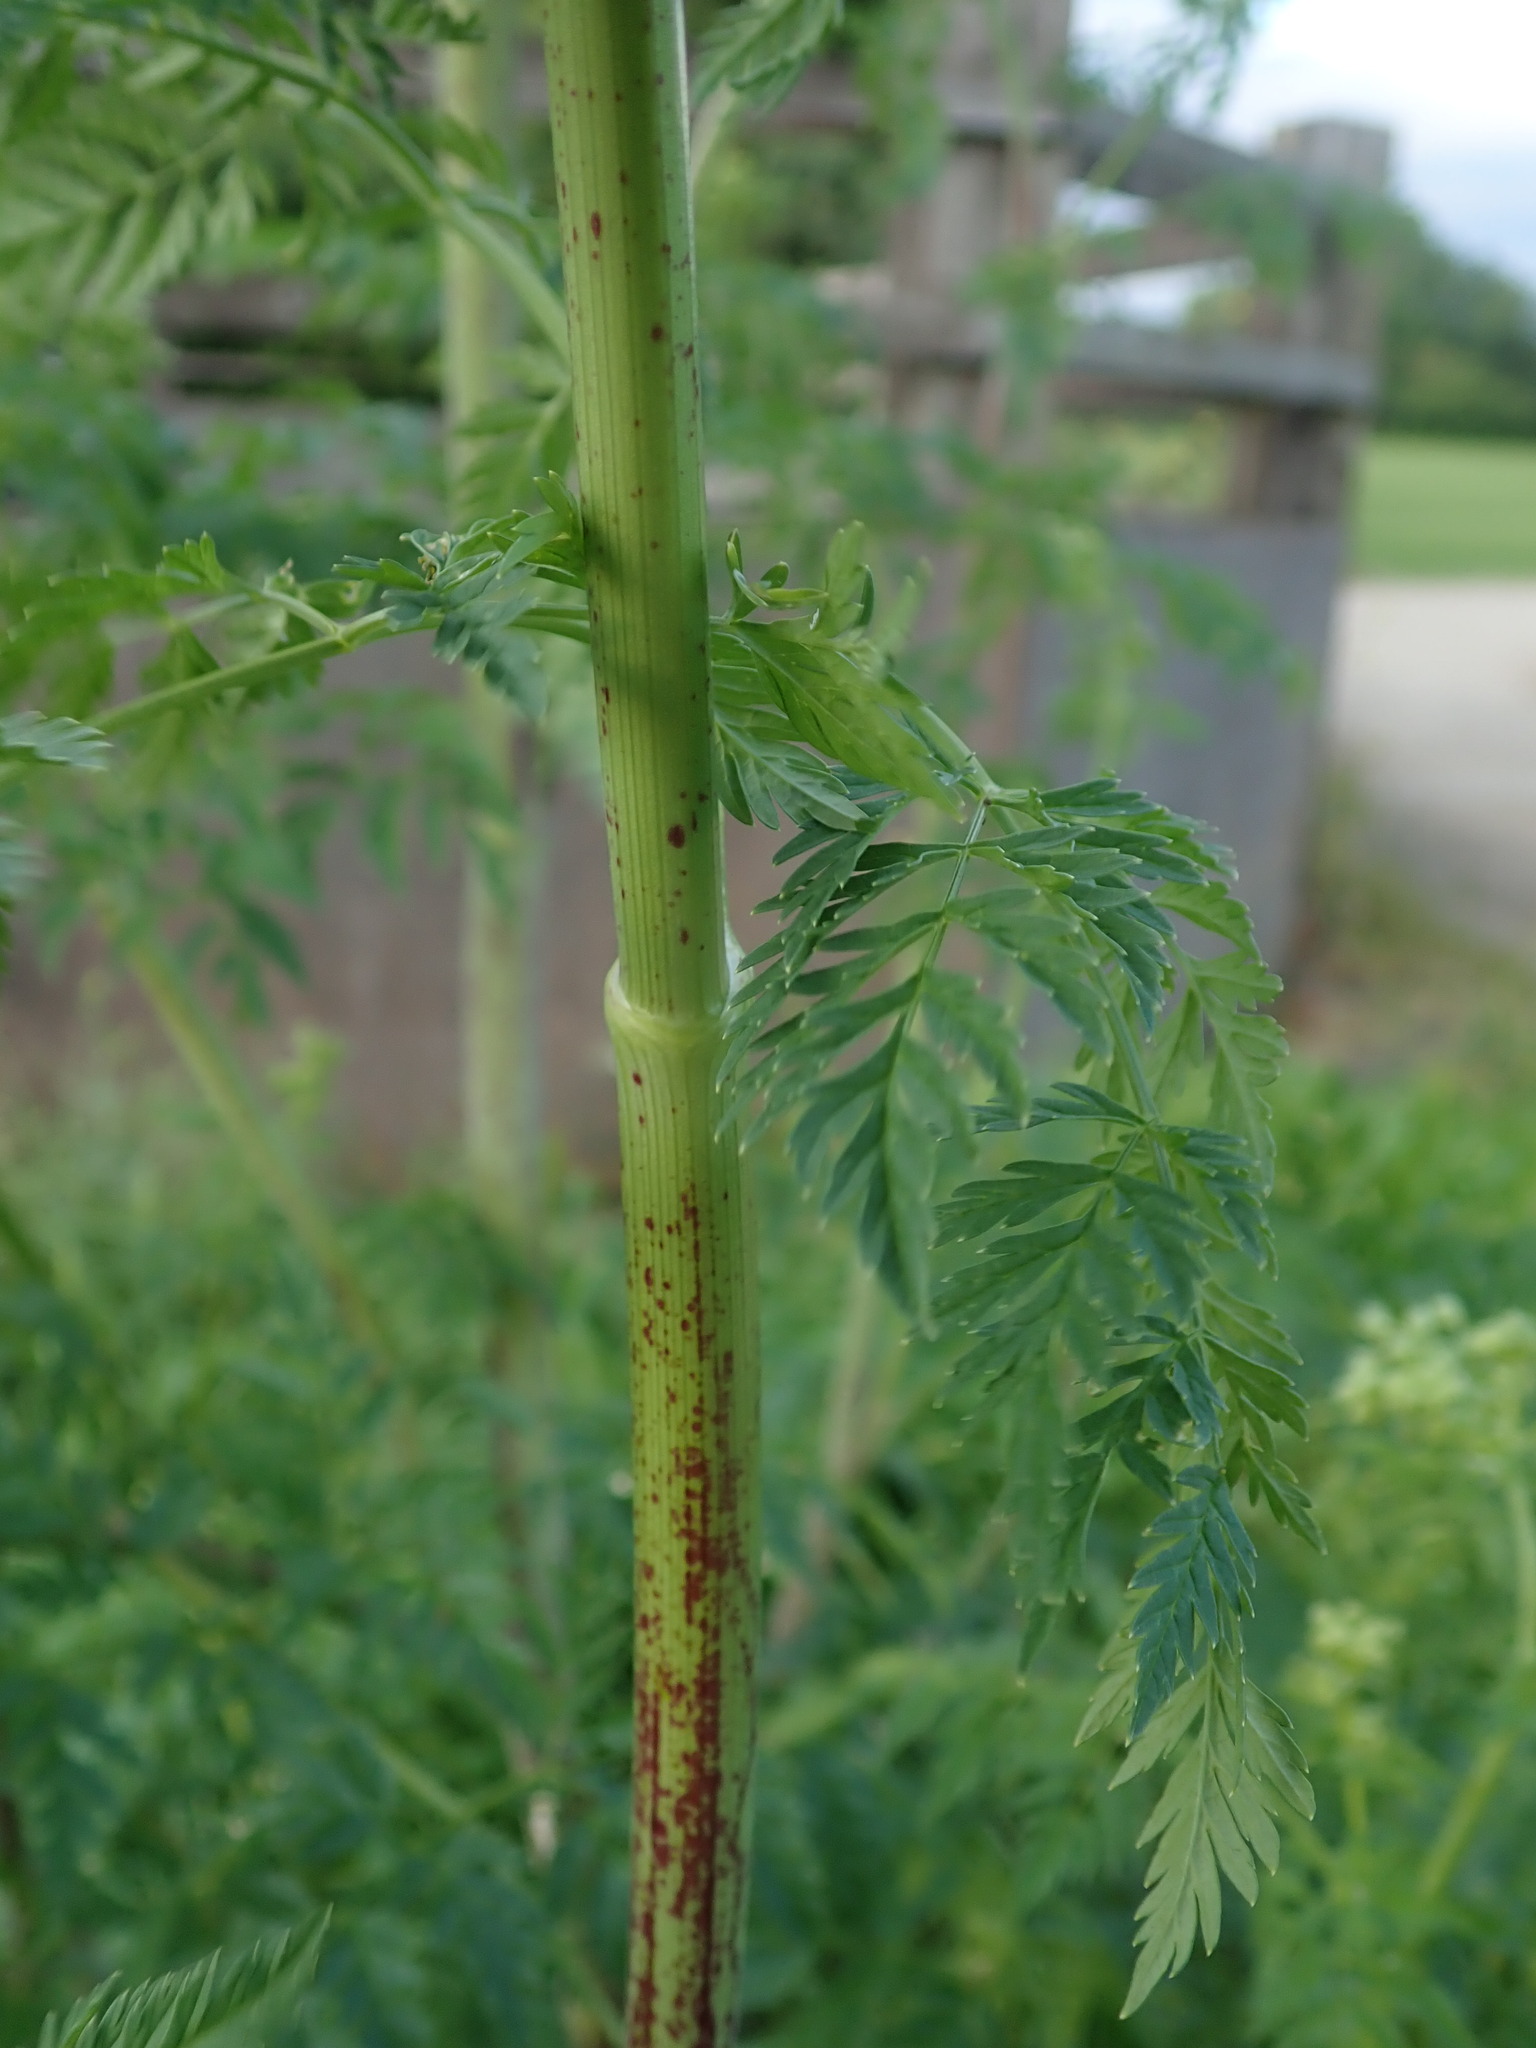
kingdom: Plantae
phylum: Tracheophyta
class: Magnoliopsida
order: Apiales
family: Apiaceae
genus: Conium
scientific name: Conium maculatum
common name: Hemlock
